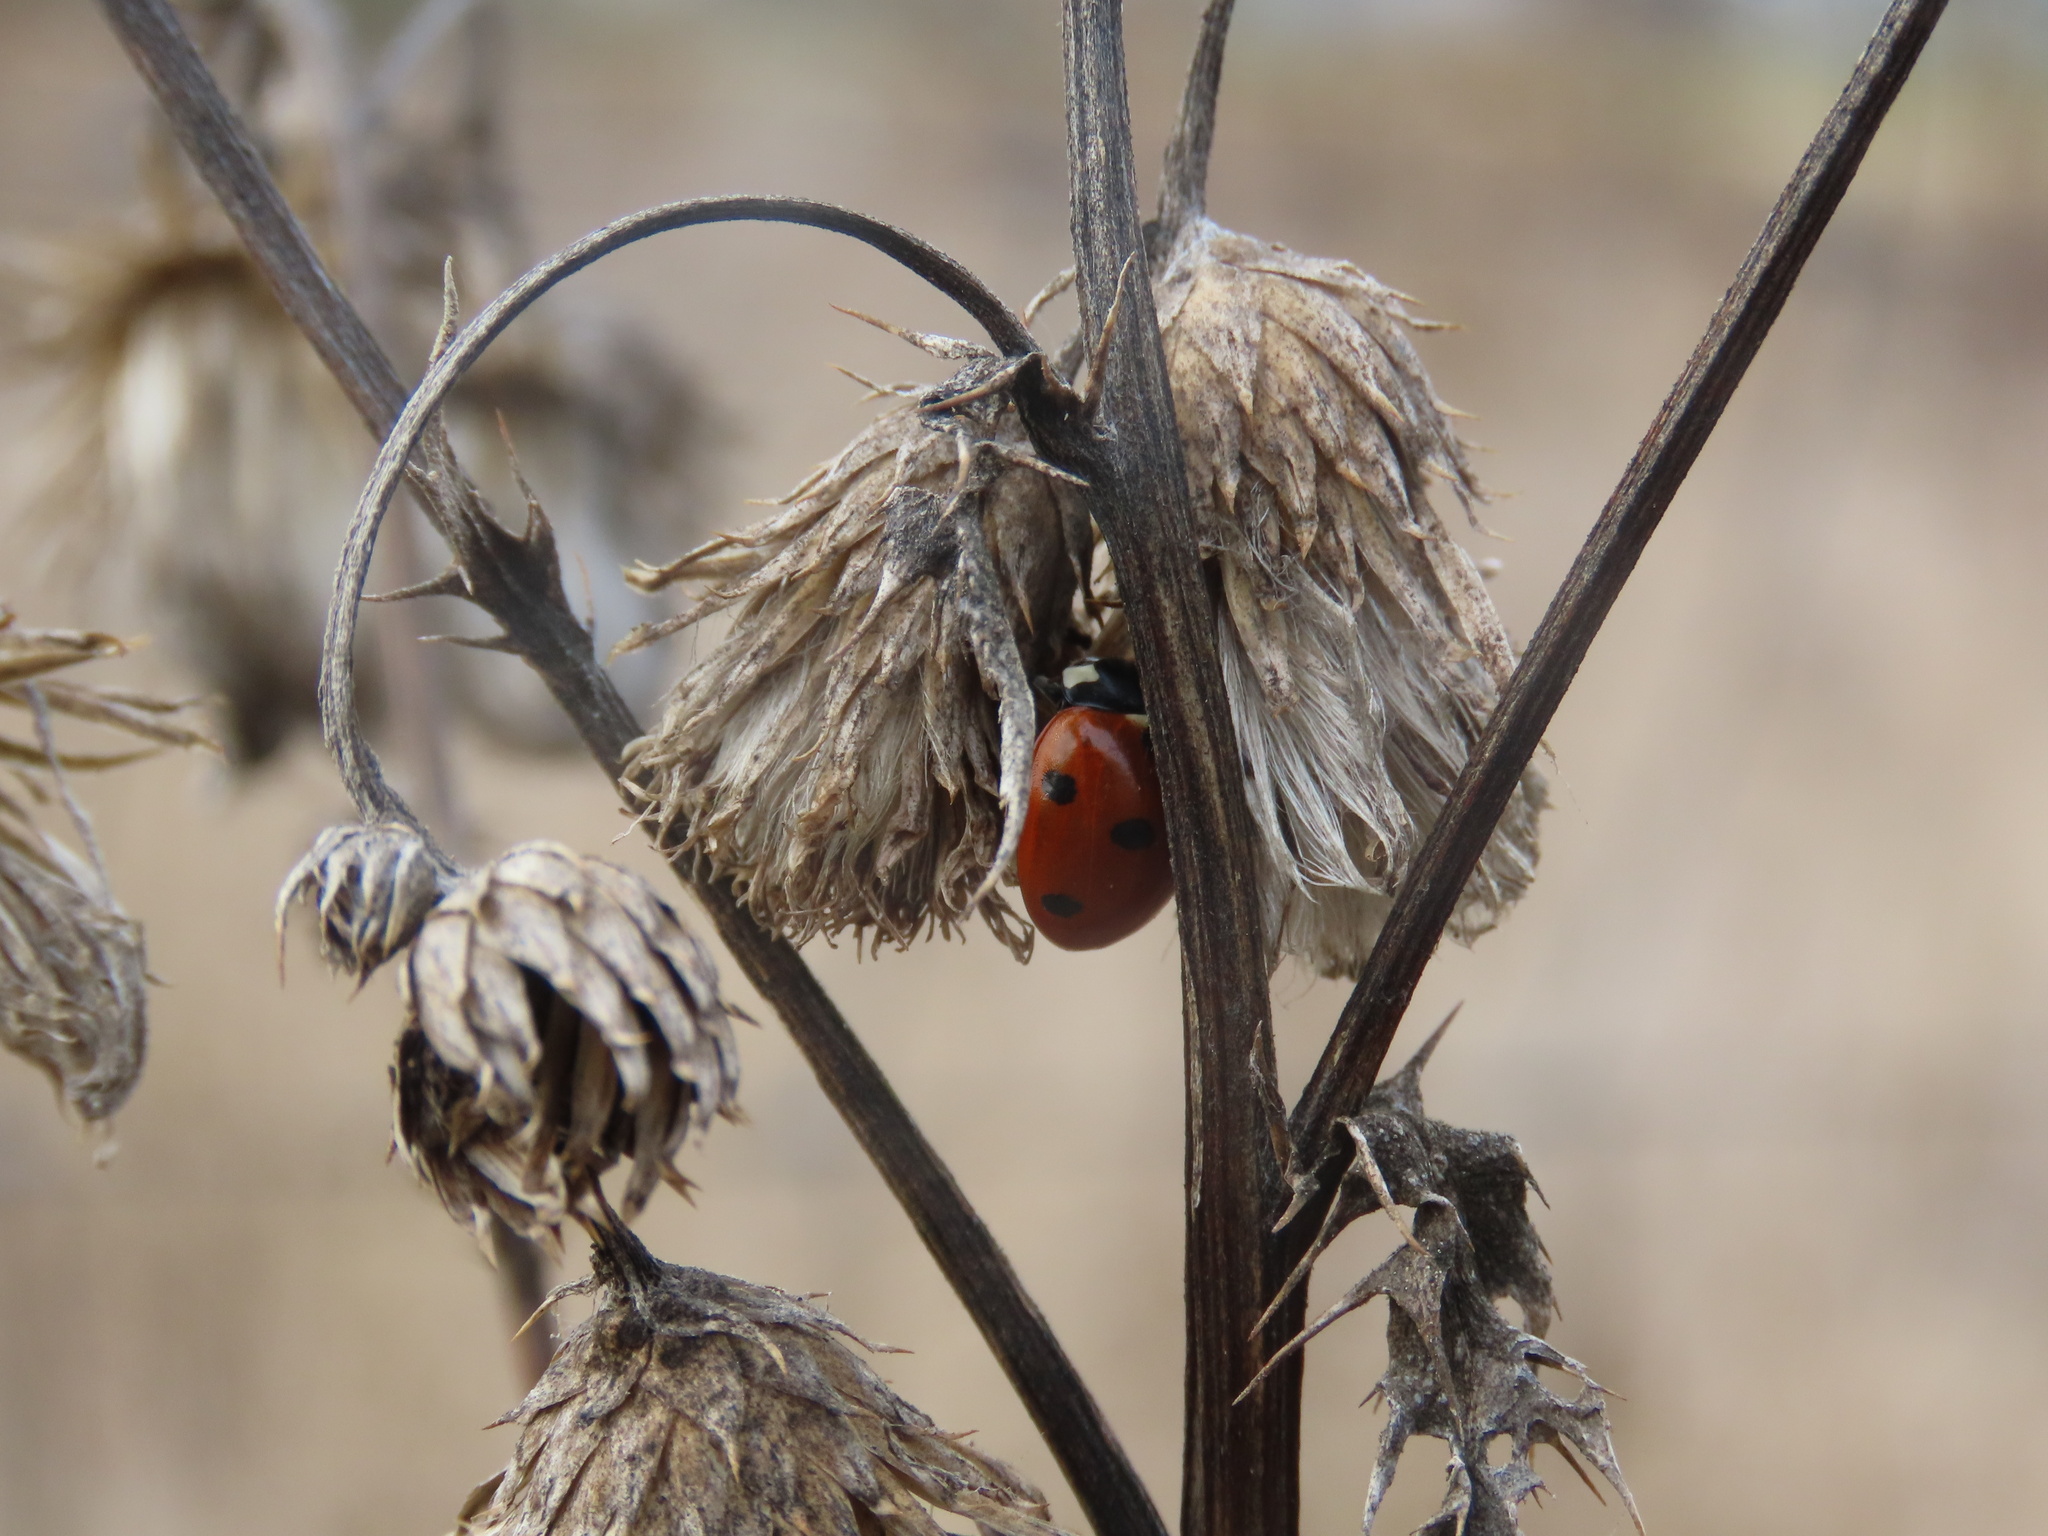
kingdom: Animalia
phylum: Arthropoda
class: Insecta
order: Coleoptera
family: Coccinellidae
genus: Coccinella
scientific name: Coccinella septempunctata
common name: Sevenspotted lady beetle
